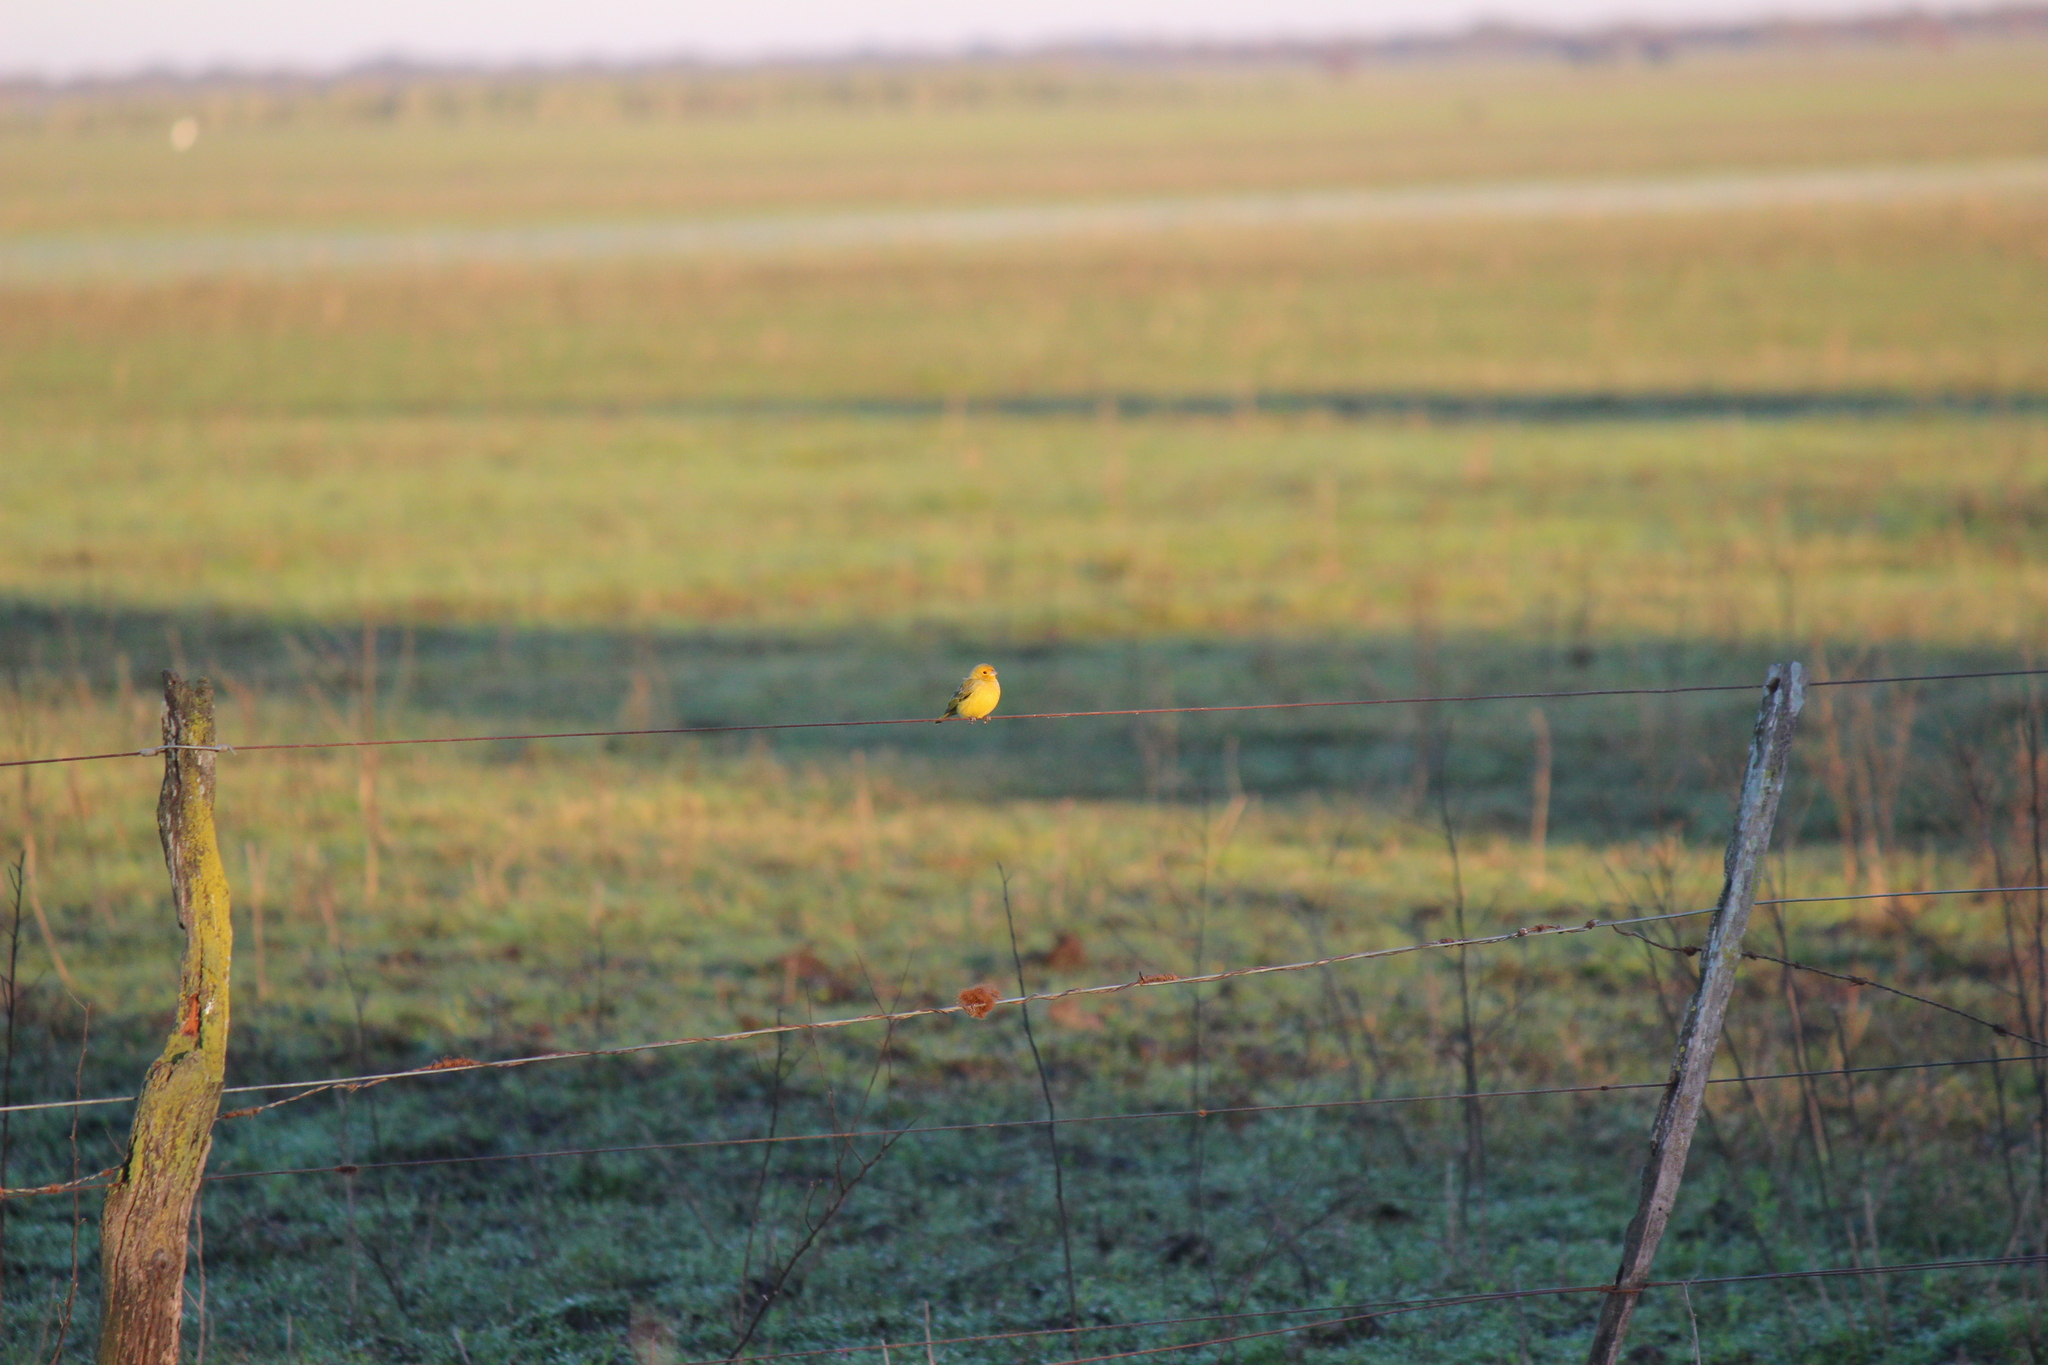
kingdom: Animalia
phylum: Chordata
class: Aves
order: Passeriformes
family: Thraupidae
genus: Sicalis
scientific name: Sicalis flaveola
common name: Saffron finch
